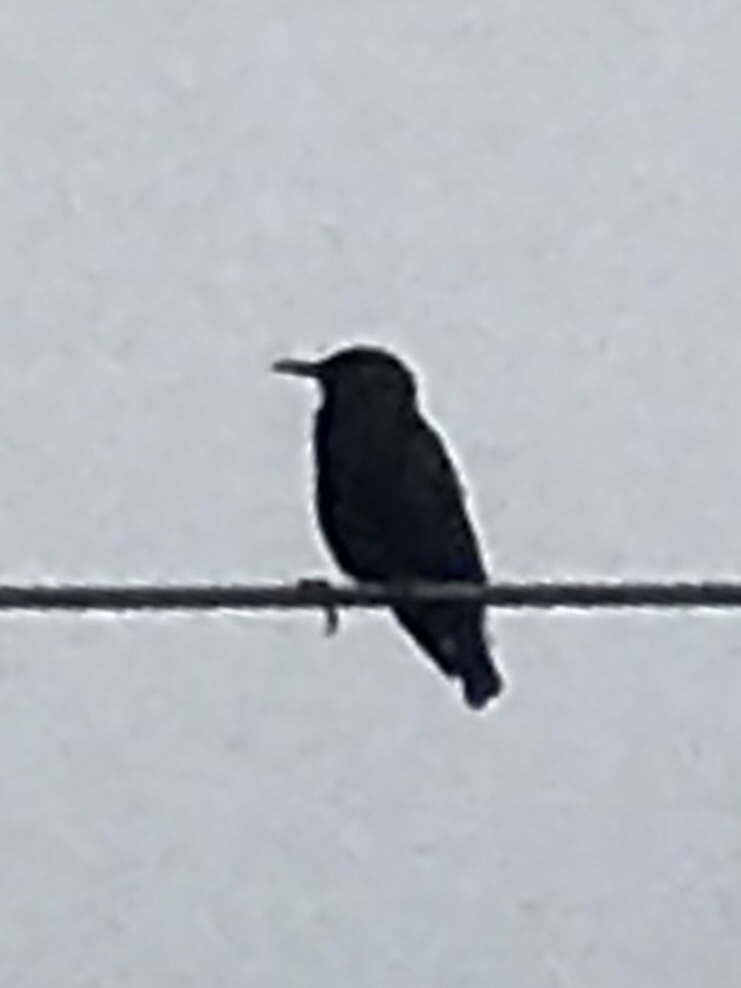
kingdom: Animalia
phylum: Chordata
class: Aves
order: Passeriformes
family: Sturnidae
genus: Sturnus
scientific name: Sturnus vulgaris
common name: Common starling
